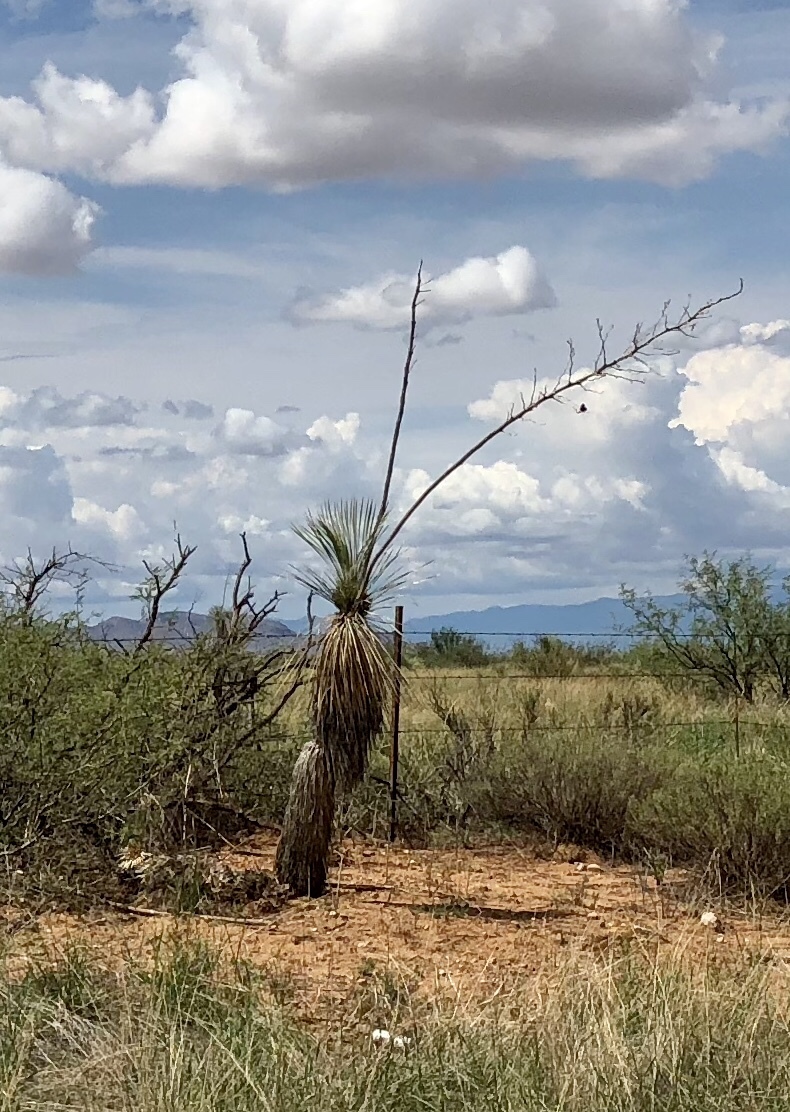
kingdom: Plantae
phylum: Tracheophyta
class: Liliopsida
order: Asparagales
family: Asparagaceae
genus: Yucca
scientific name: Yucca elata
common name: Palmella
